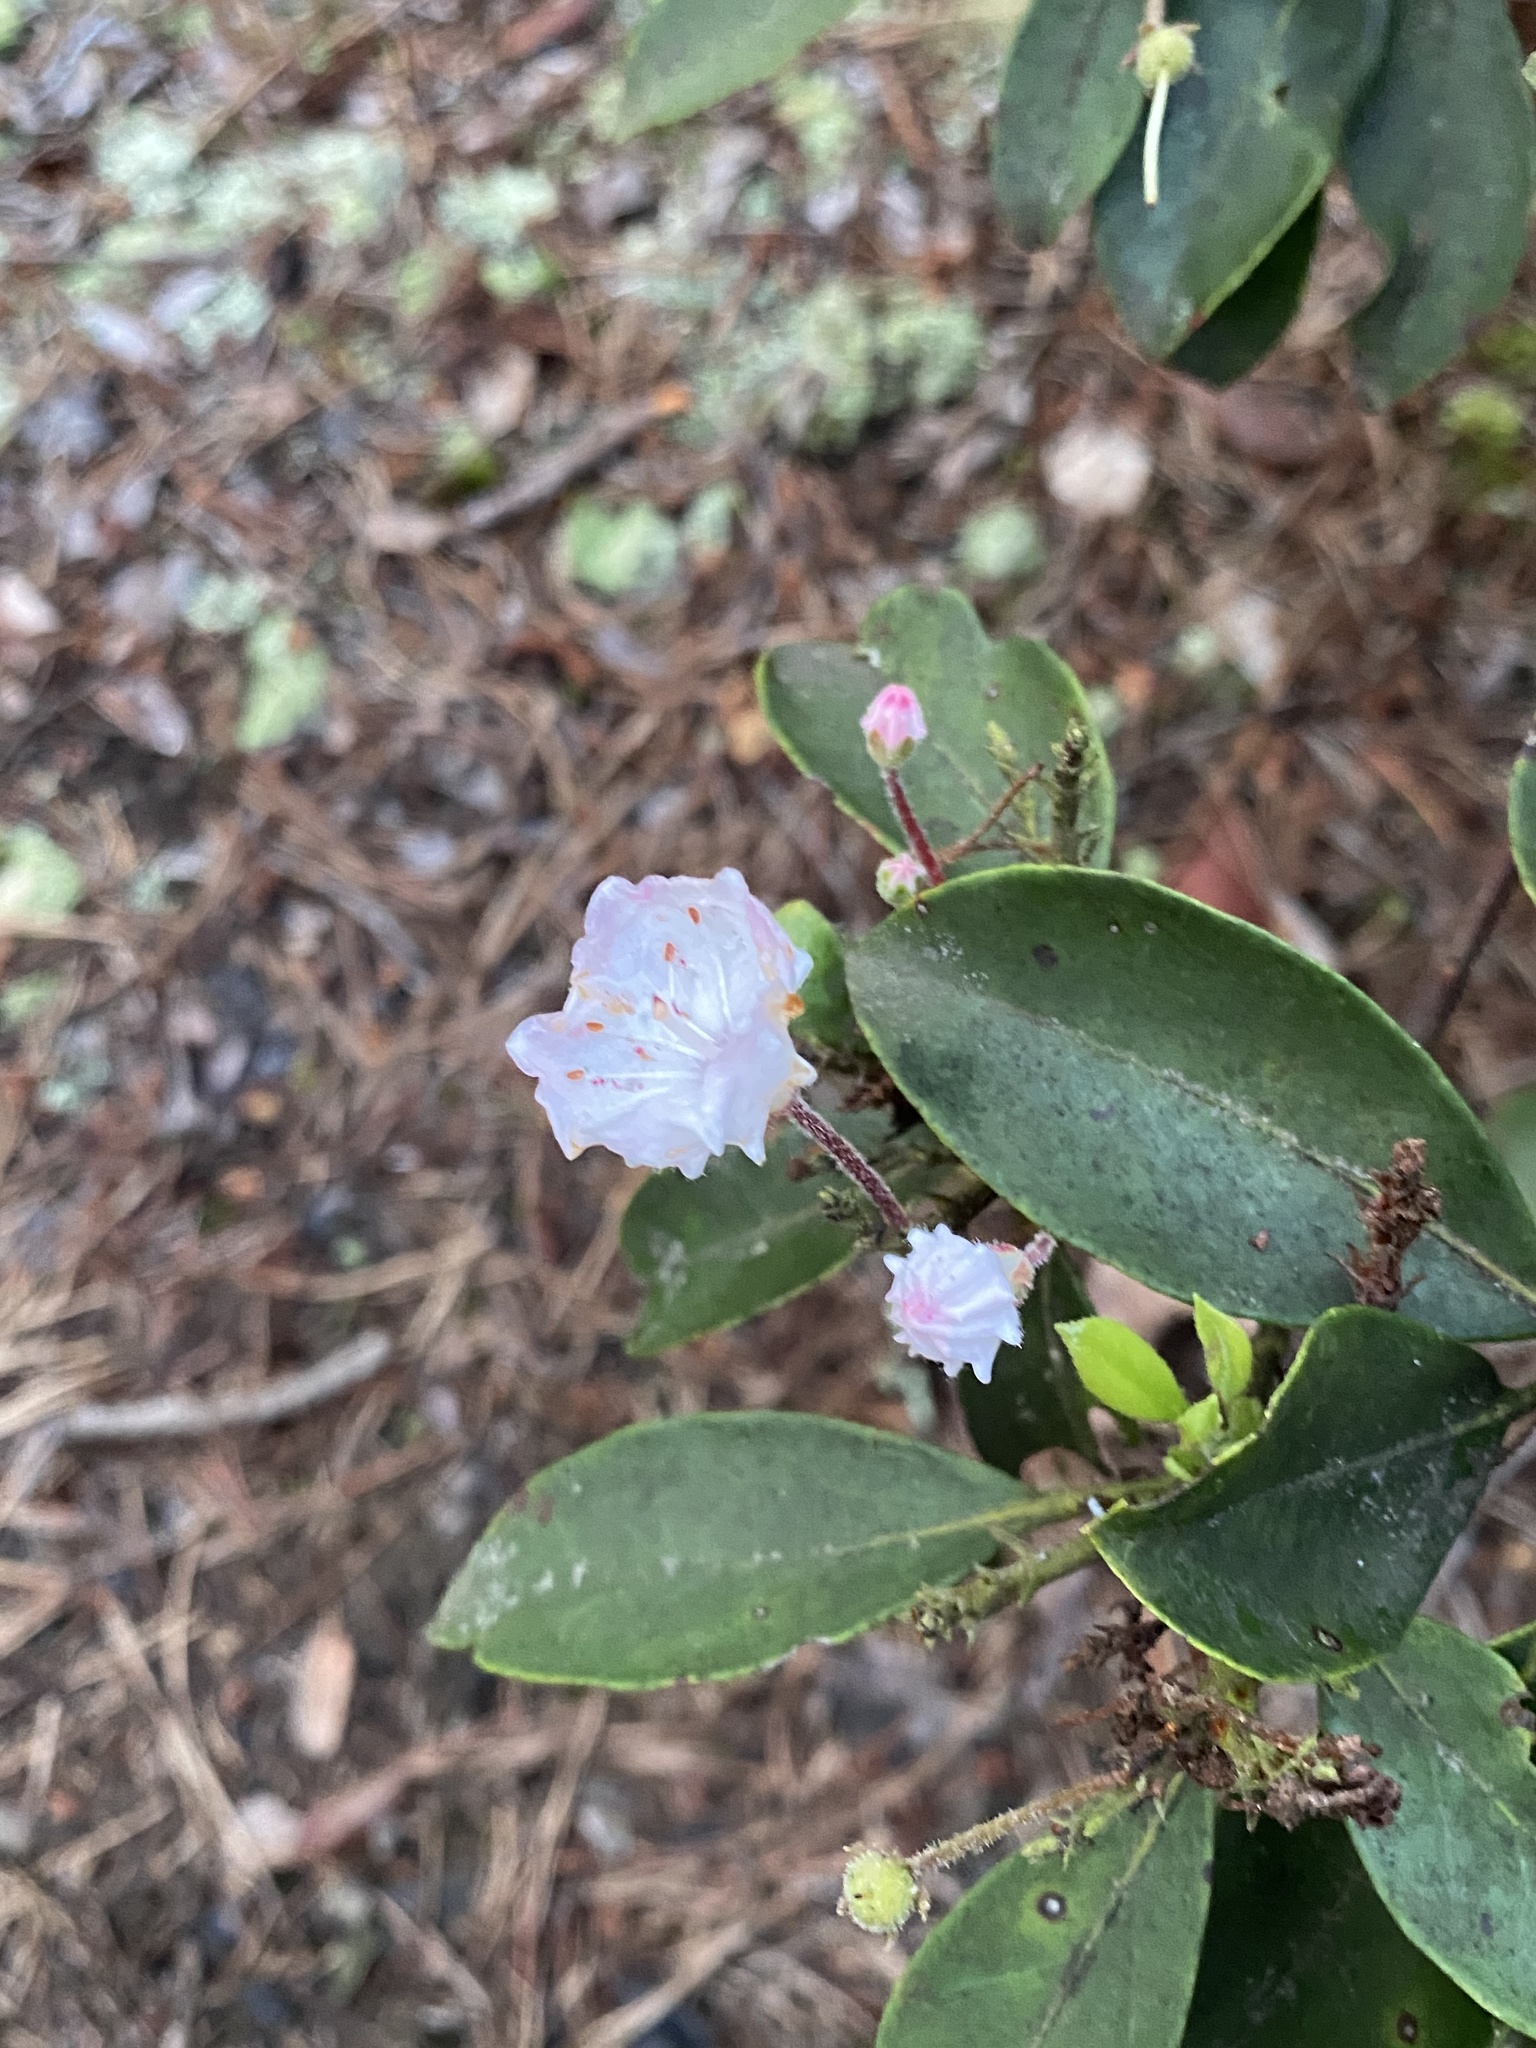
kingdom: Plantae
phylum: Tracheophyta
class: Magnoliopsida
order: Ericales
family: Ericaceae
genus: Kalmia
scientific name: Kalmia latifolia
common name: Mountain-laurel
